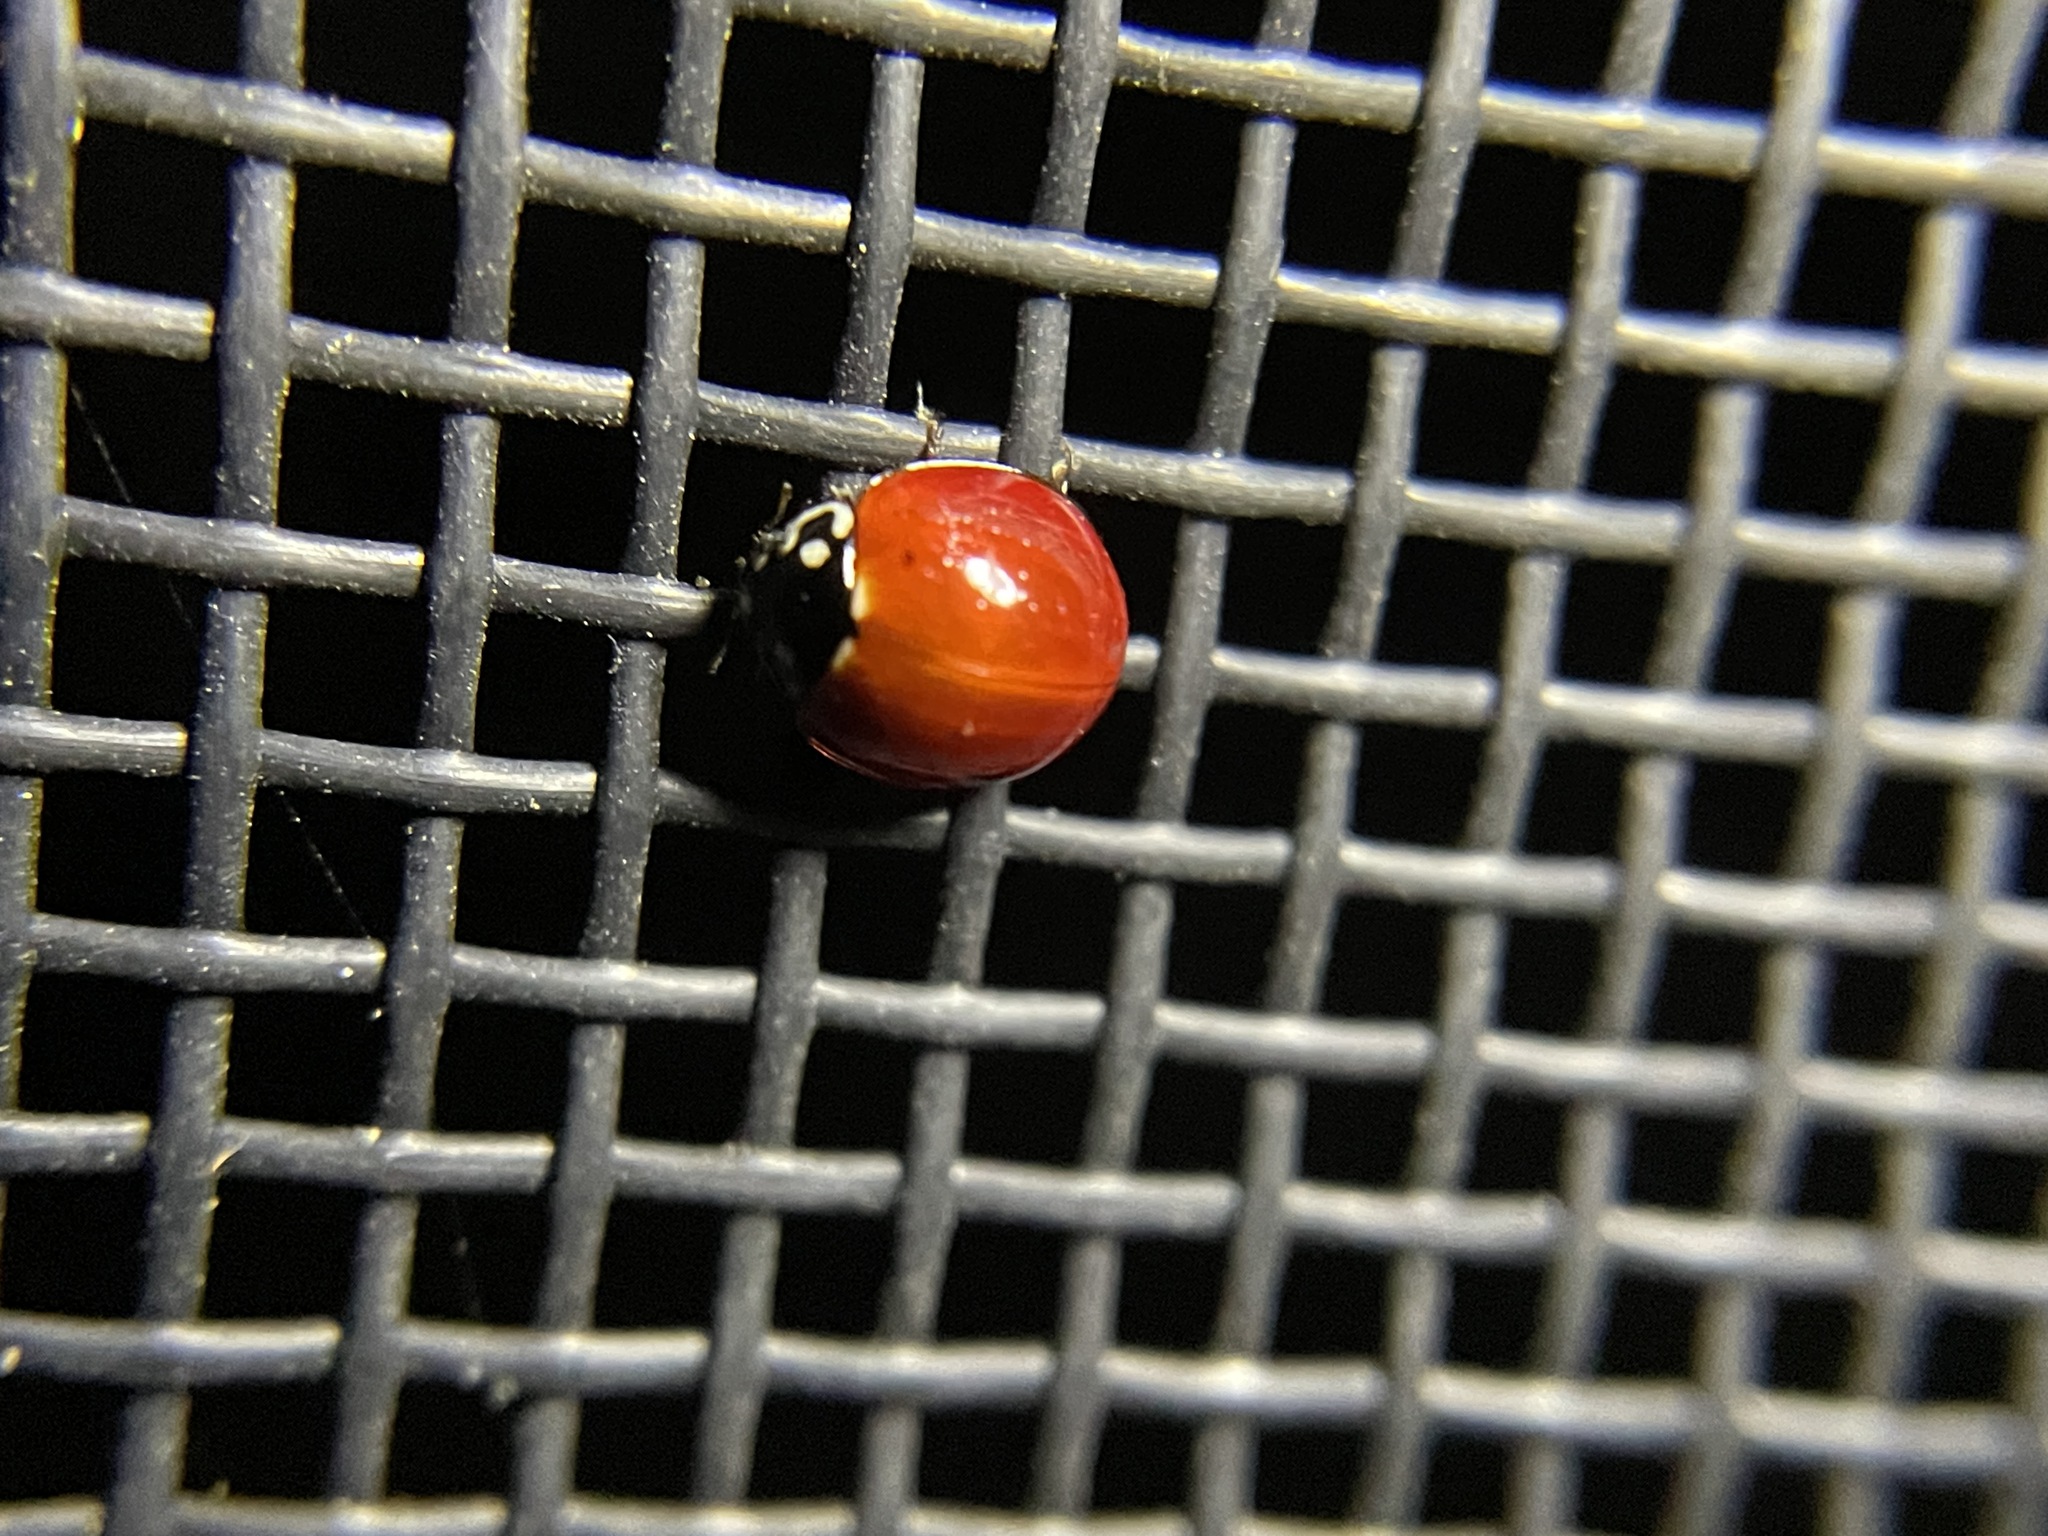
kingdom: Animalia
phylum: Arthropoda
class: Insecta
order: Coleoptera
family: Coccinellidae
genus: Cycloneda
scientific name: Cycloneda sanguinea
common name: Ladybird beetle
